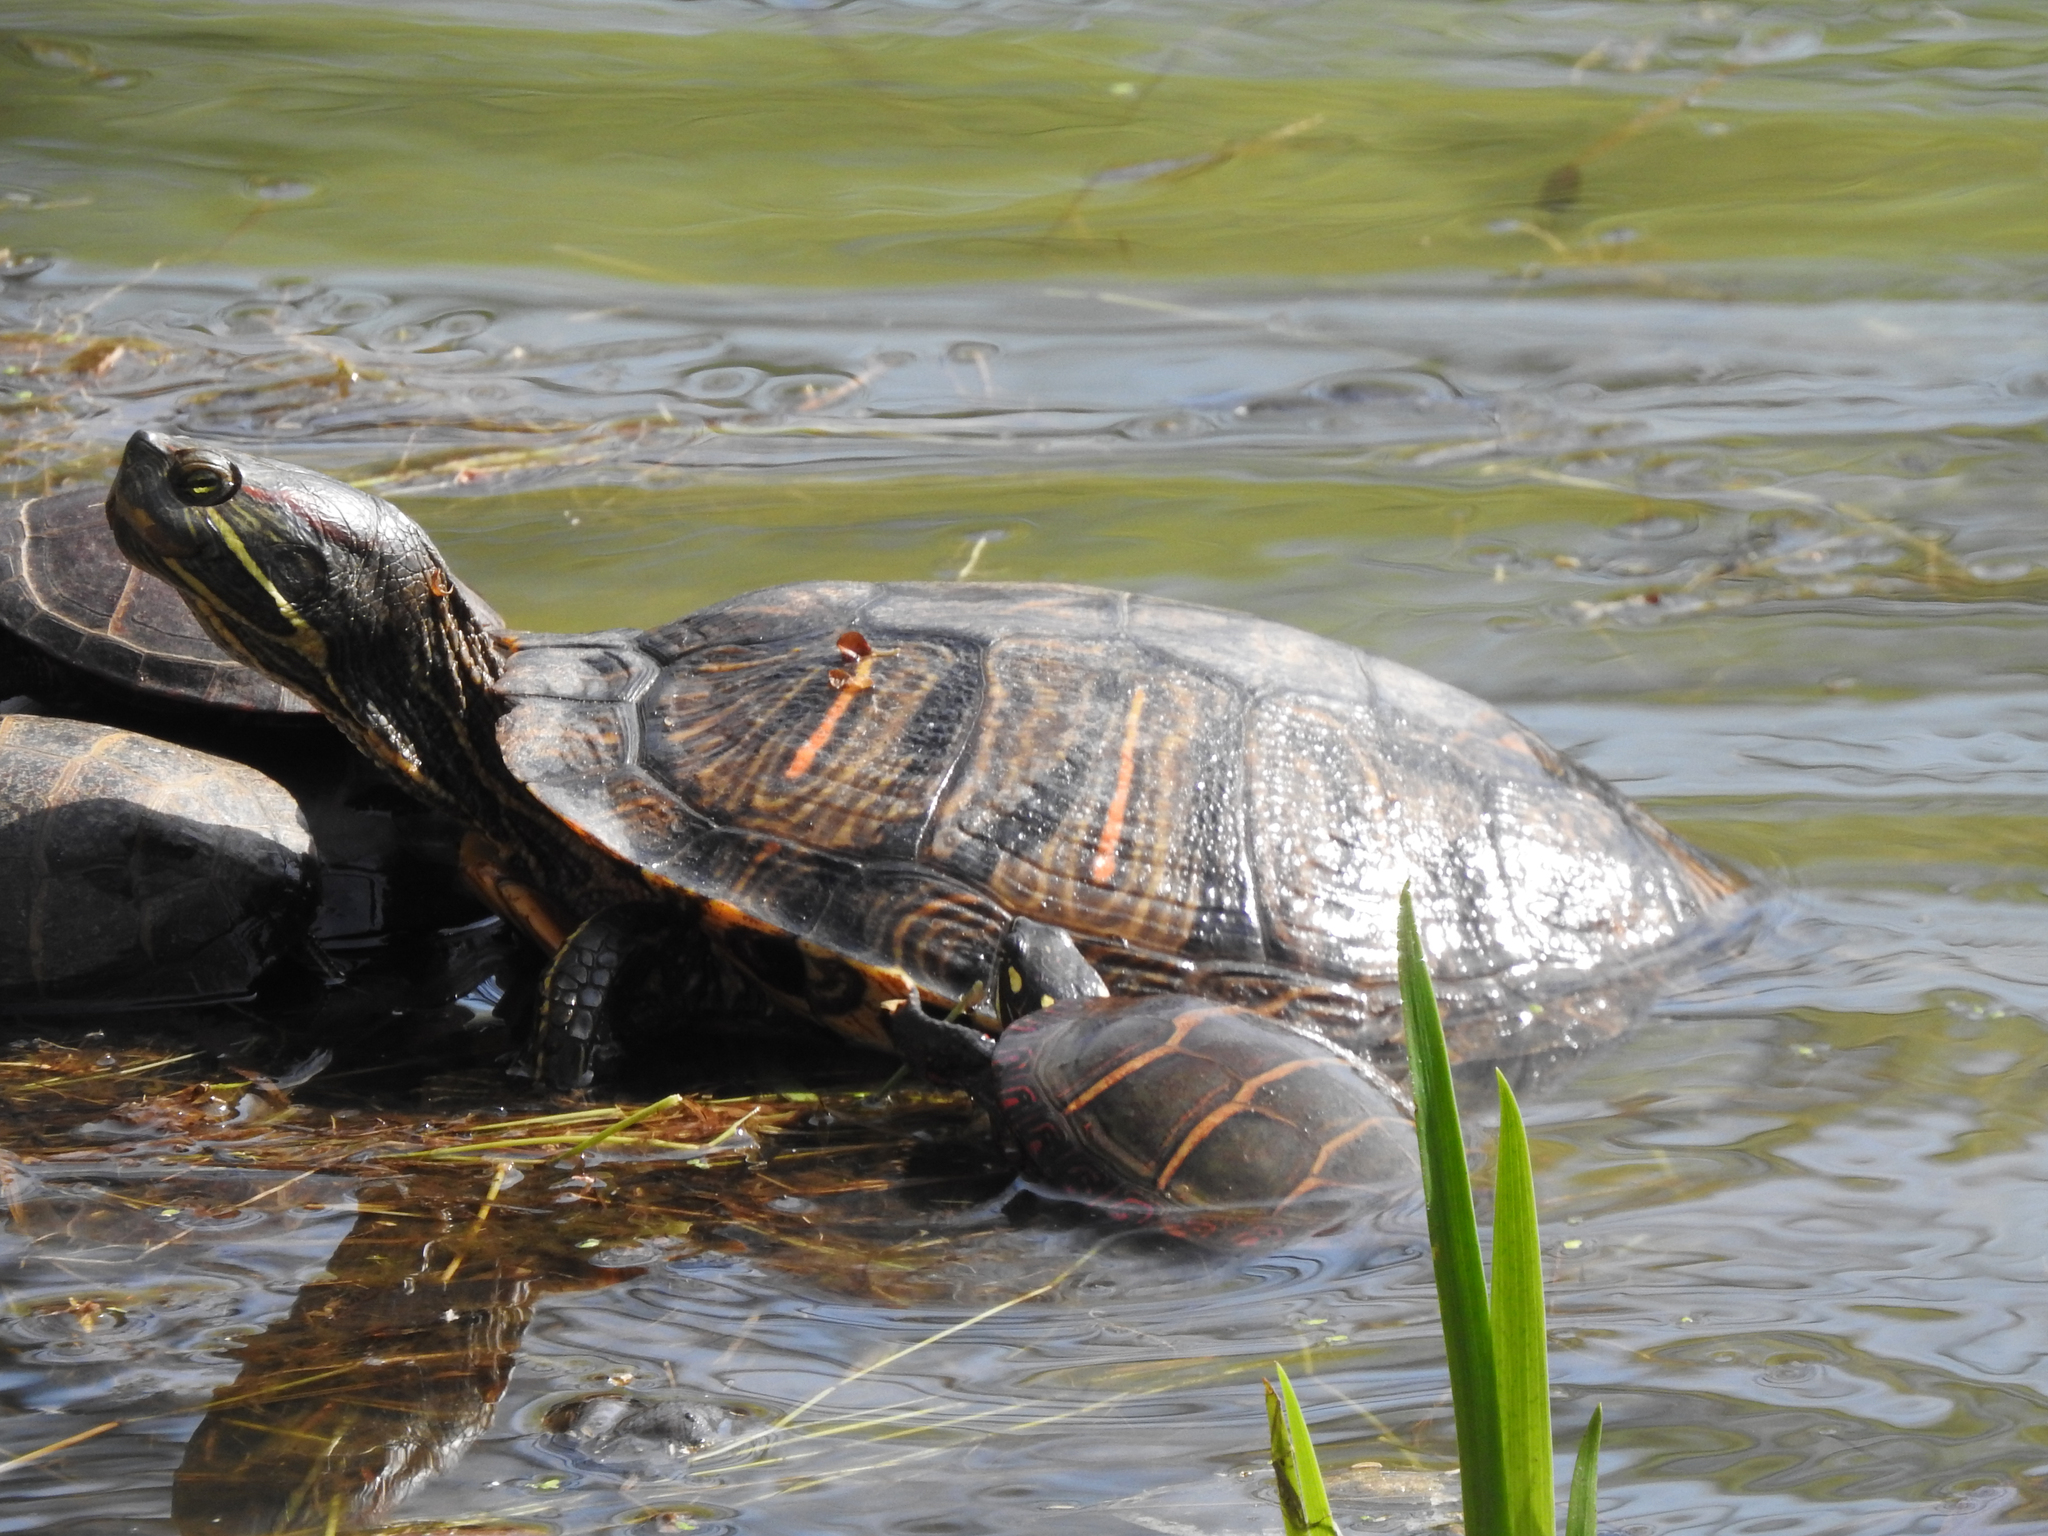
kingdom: Animalia
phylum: Chordata
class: Testudines
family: Emydidae
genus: Trachemys
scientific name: Trachemys scripta
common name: Slider
